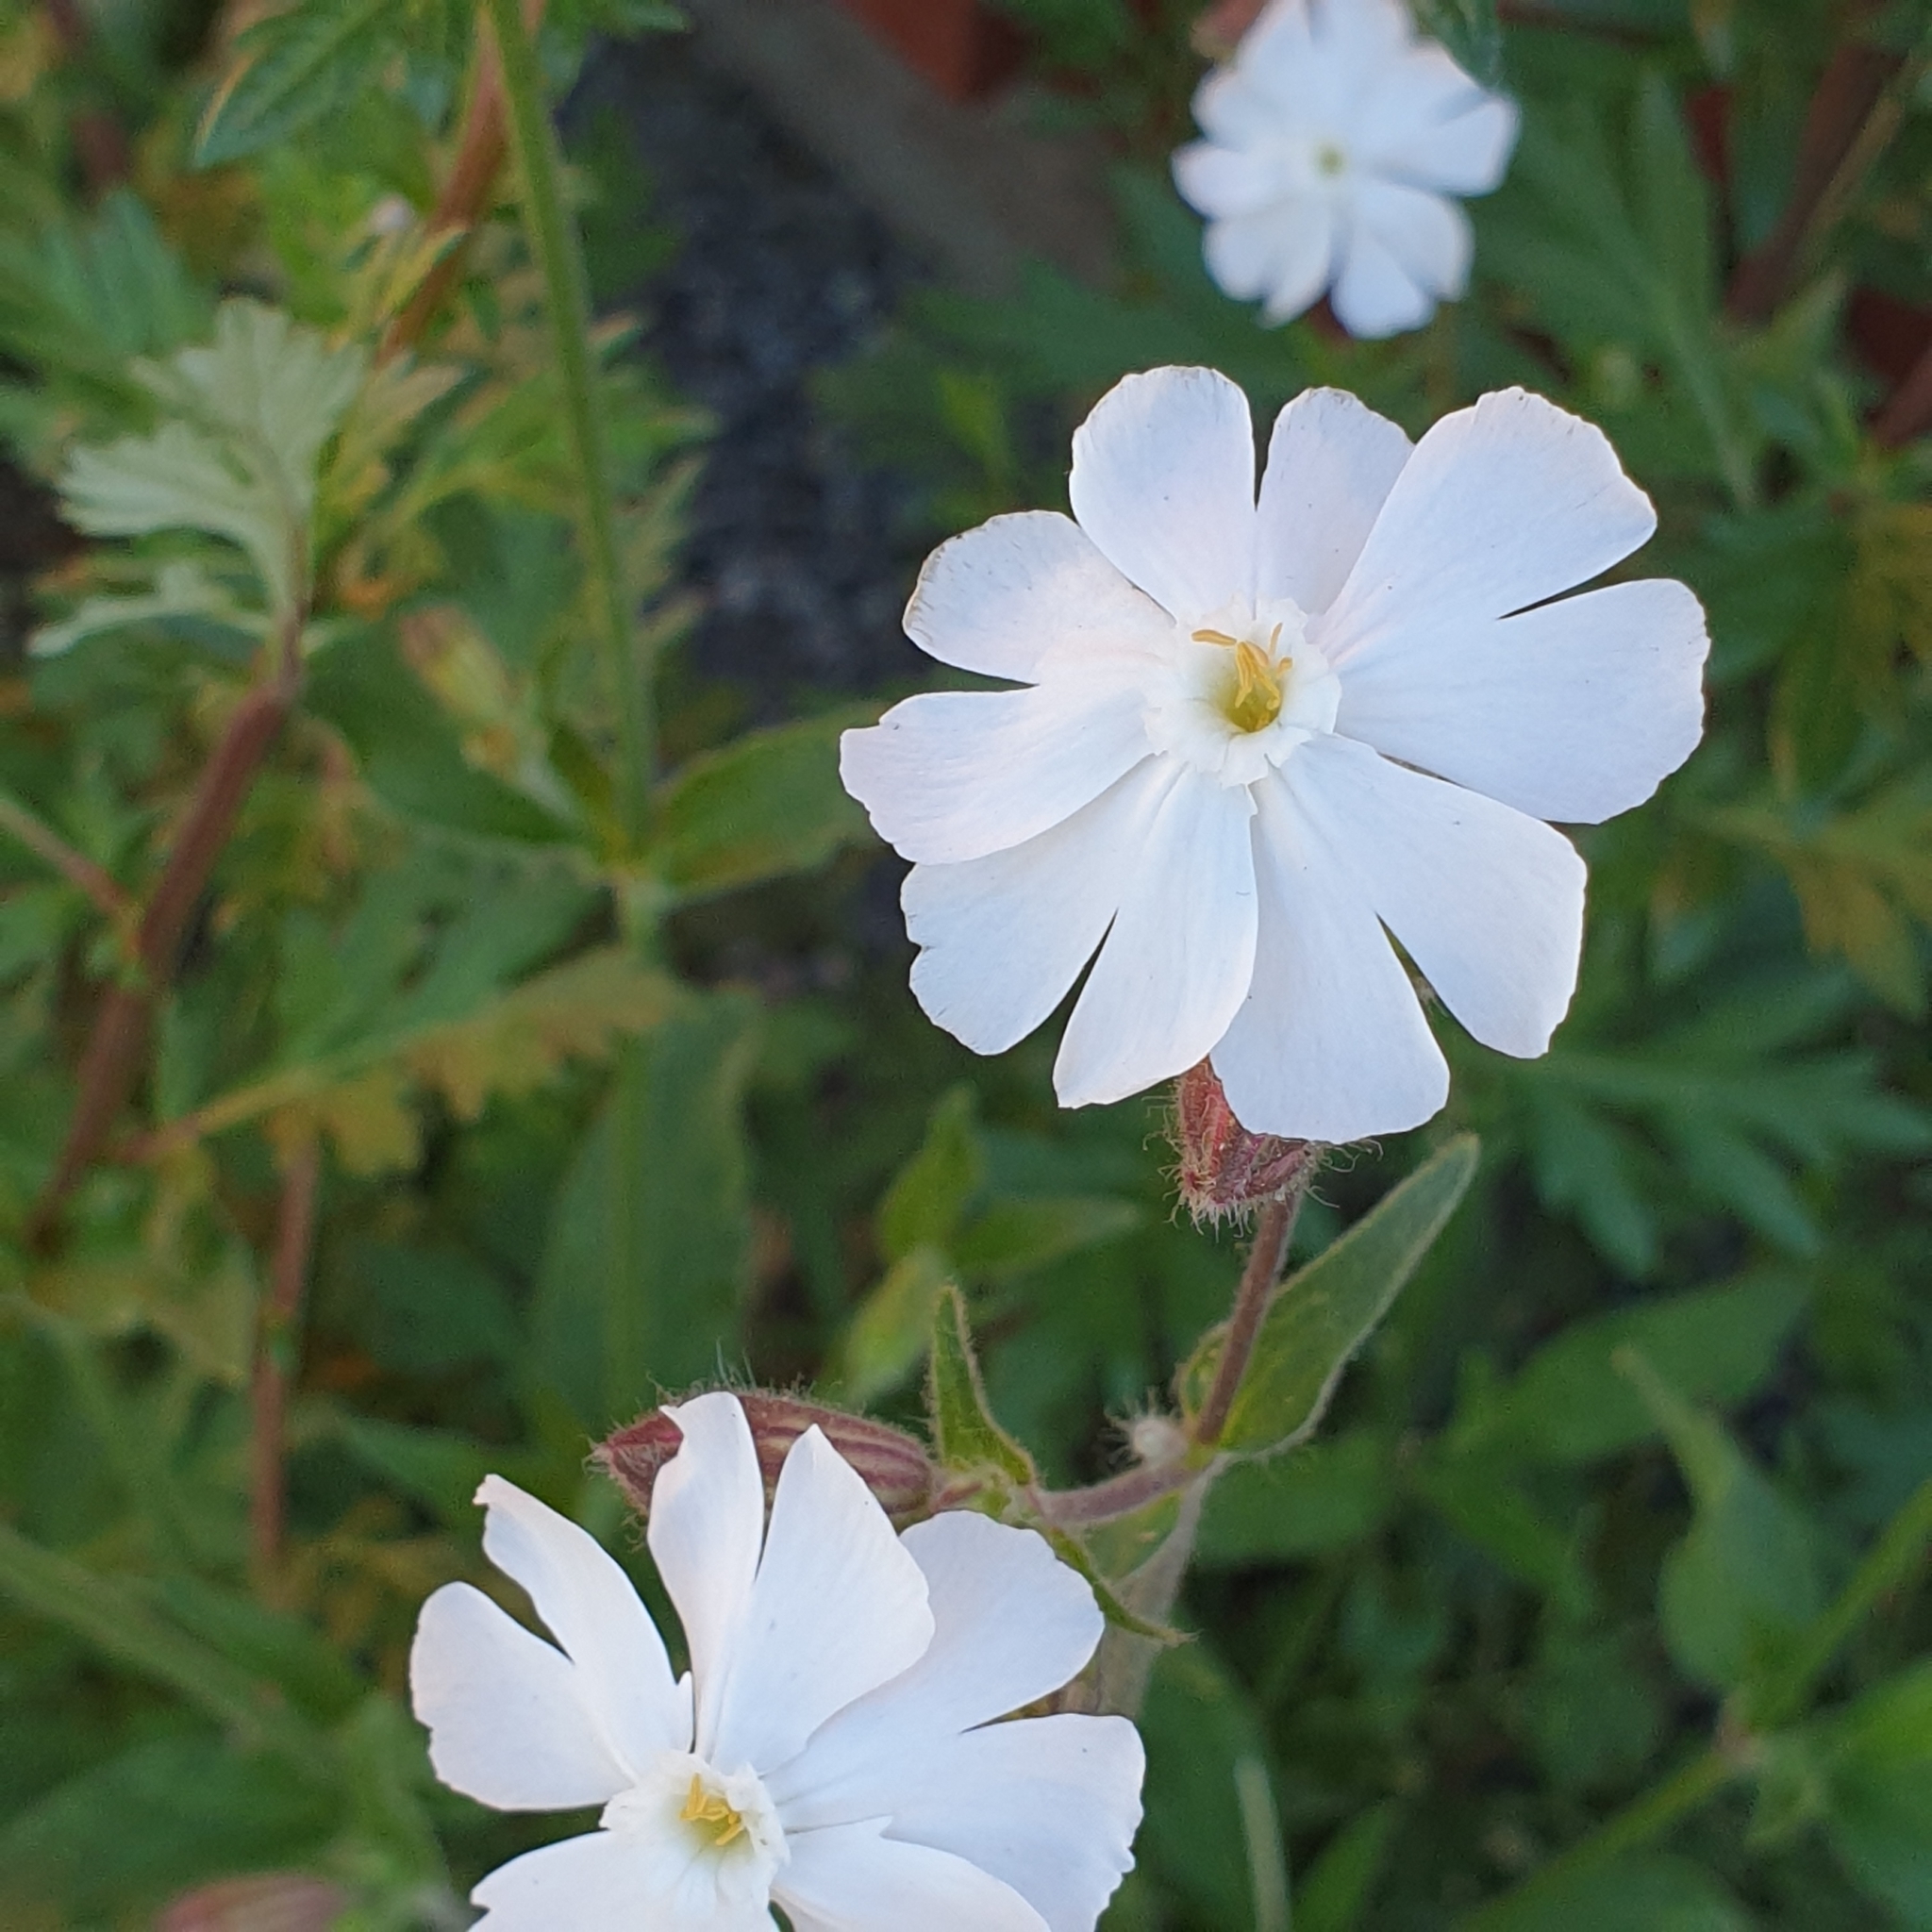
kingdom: Plantae
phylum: Tracheophyta
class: Magnoliopsida
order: Caryophyllales
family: Caryophyllaceae
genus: Silene
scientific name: Silene latifolia
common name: White campion
